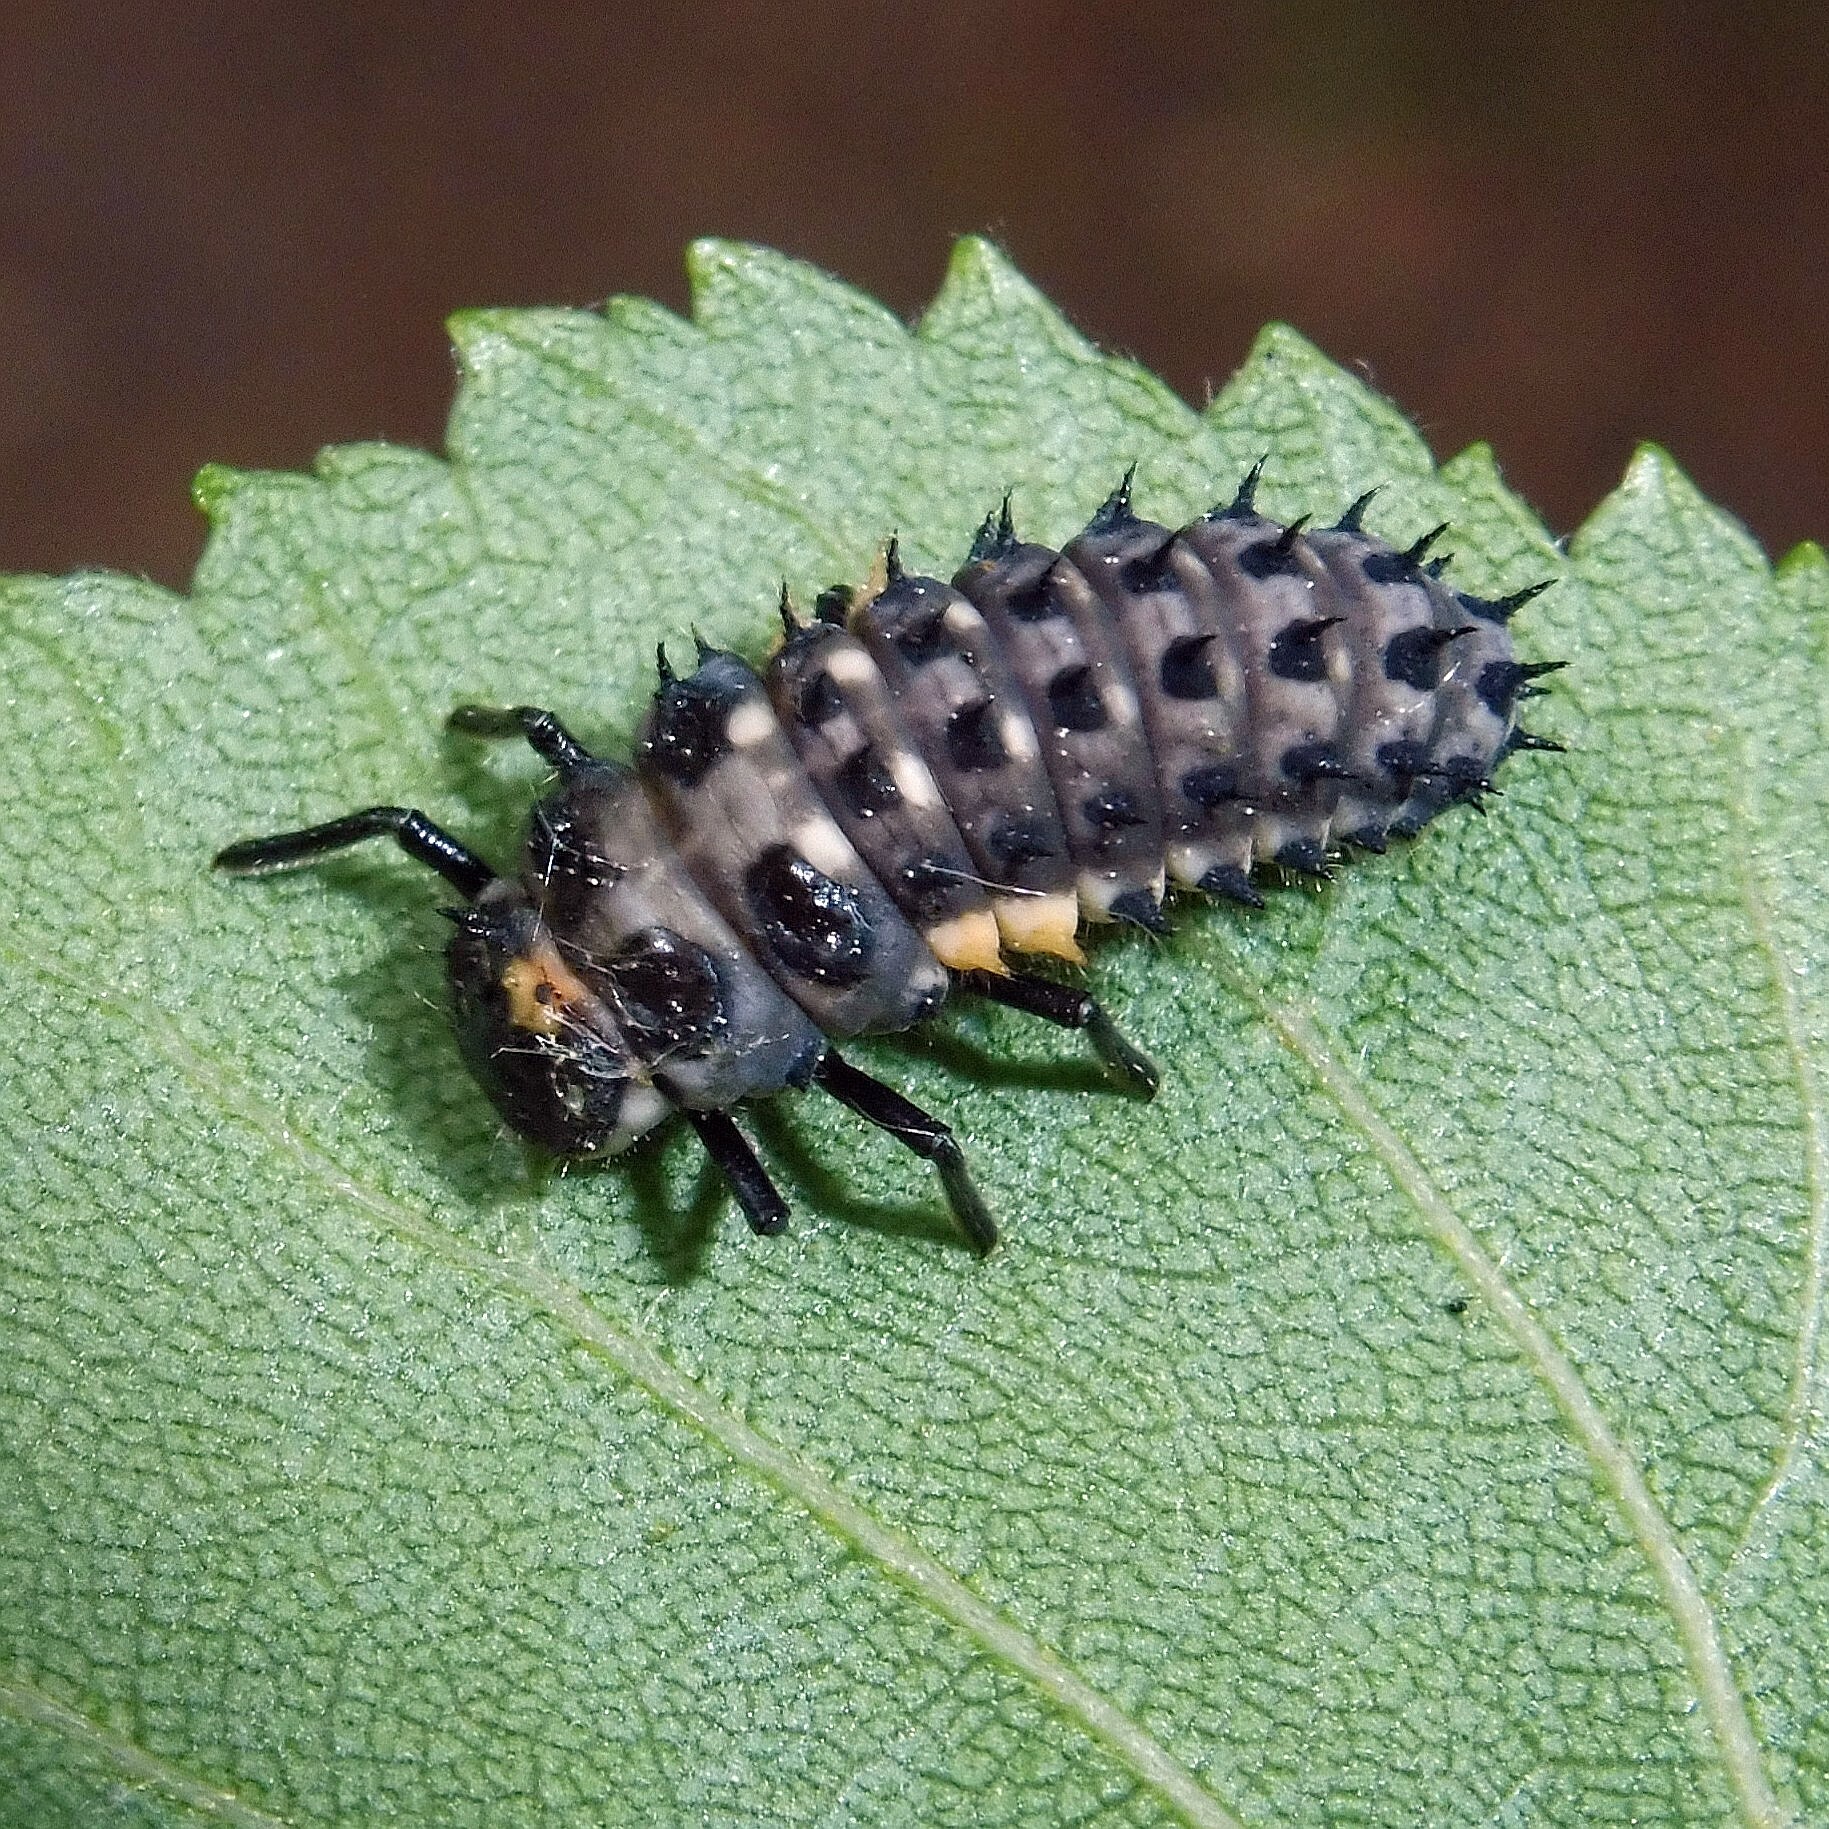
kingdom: Animalia
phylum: Arthropoda
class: Insecta
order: Coleoptera
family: Coccinellidae
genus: Anatis
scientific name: Anatis ocellata
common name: Eyed ladybird
